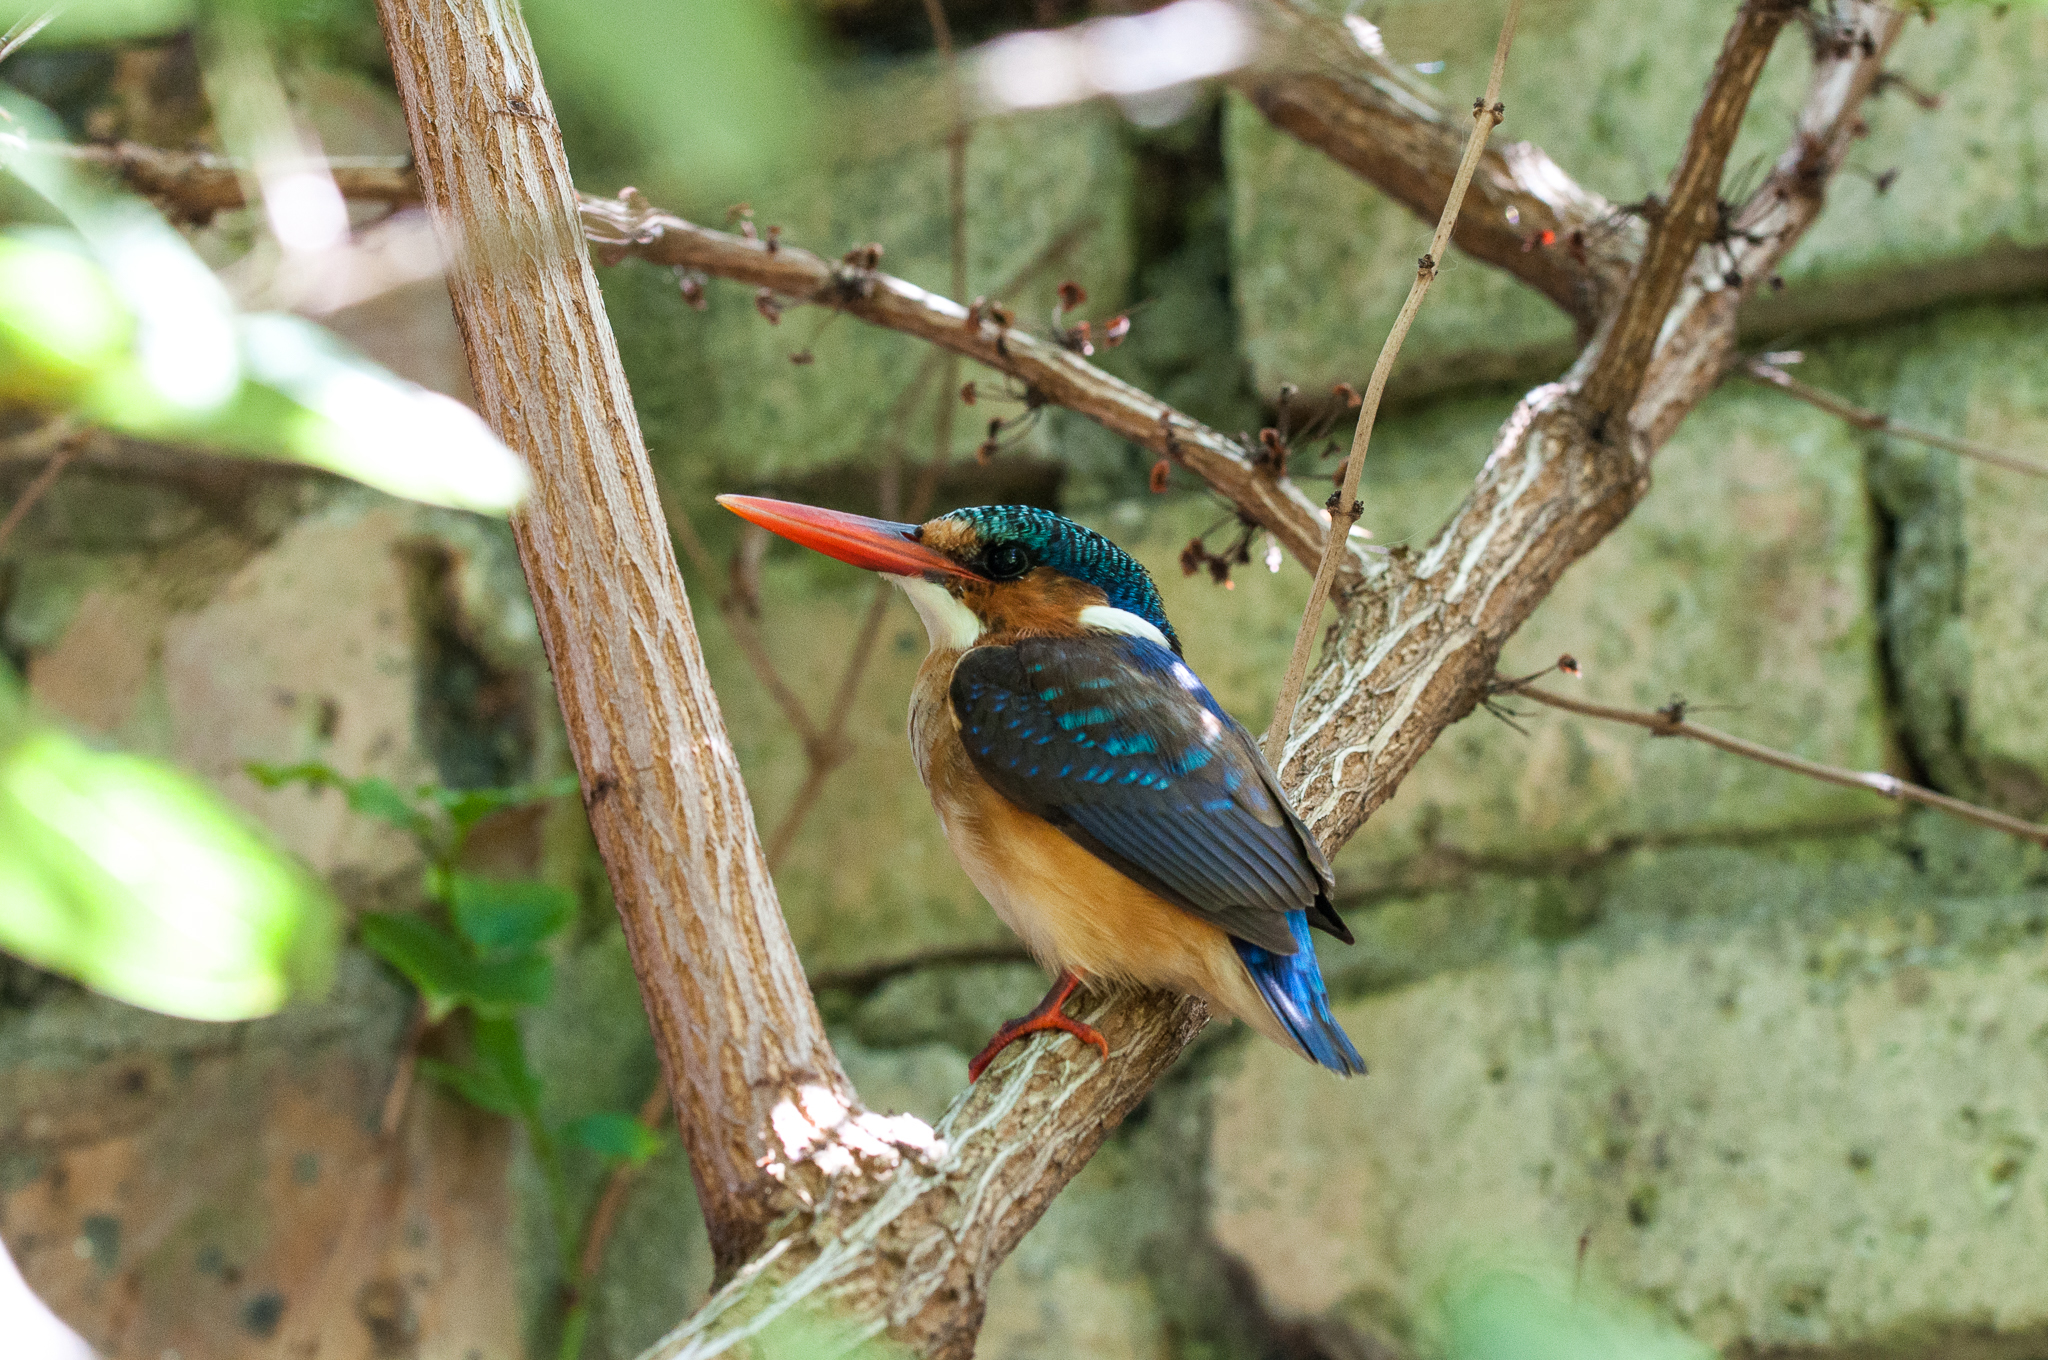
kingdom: Animalia
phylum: Chordata
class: Aves
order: Coraciiformes
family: Alcedinidae
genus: Corythornis
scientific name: Corythornis cristatus
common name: Malachite kingfisher
